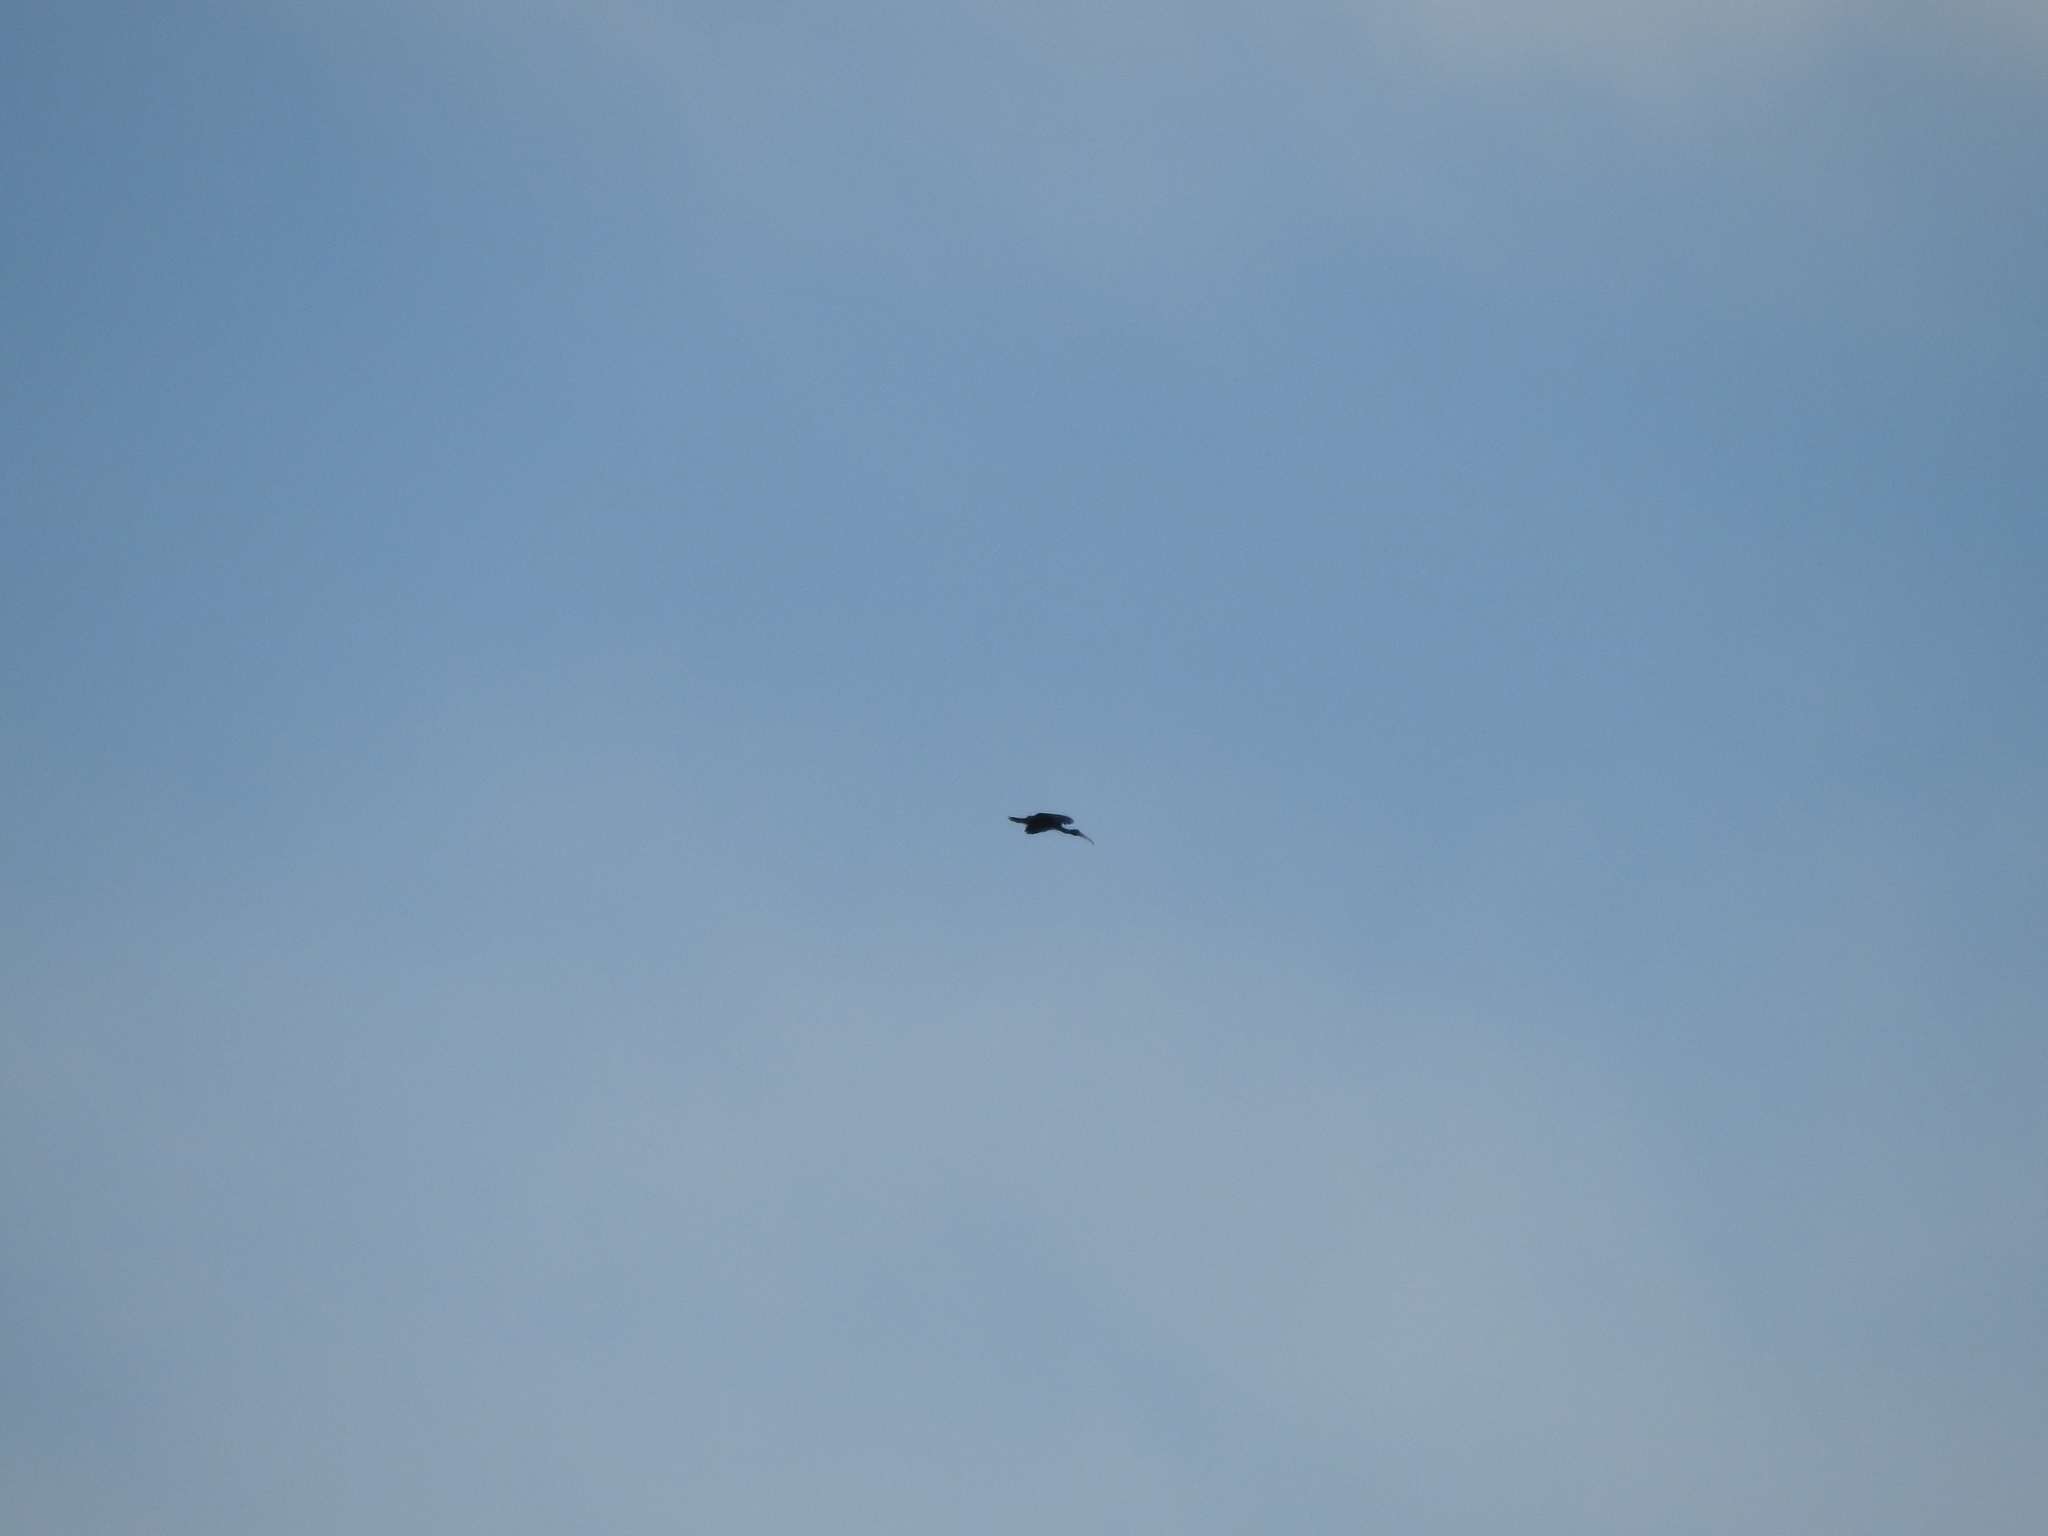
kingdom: Animalia
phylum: Chordata
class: Aves
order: Pelecaniformes
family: Threskiornithidae
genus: Plegadis
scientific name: Plegadis chihi
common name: White-faced ibis
